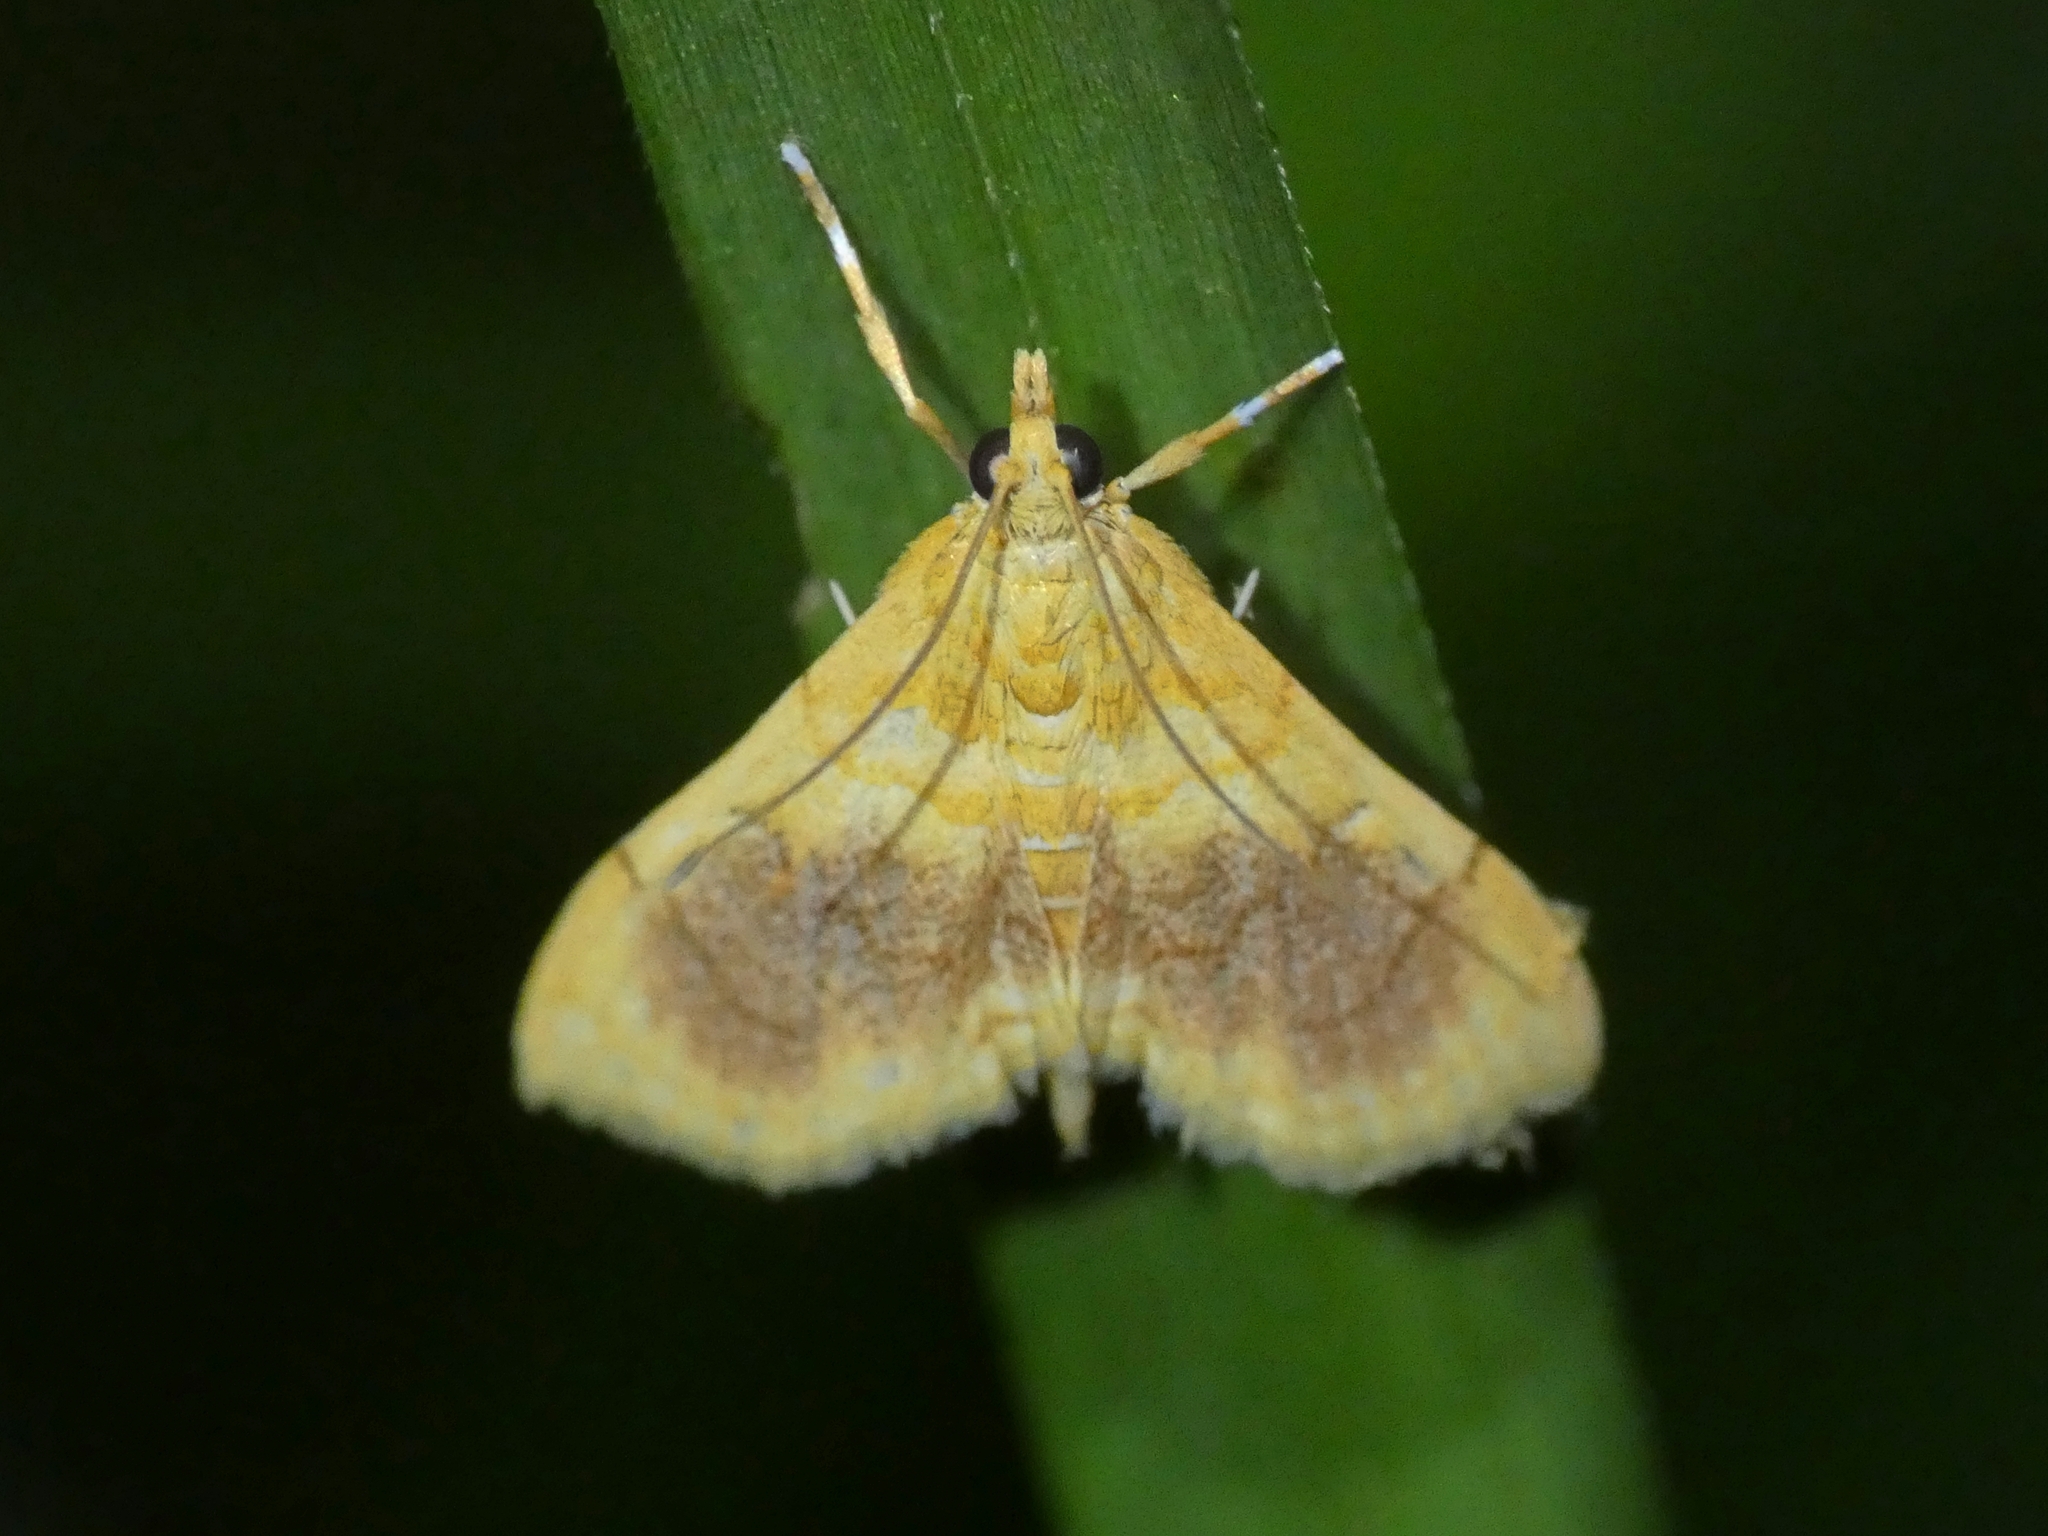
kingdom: Animalia
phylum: Arthropoda
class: Insecta
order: Lepidoptera
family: Crambidae
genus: Mabra
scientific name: Mabra eryxalis
